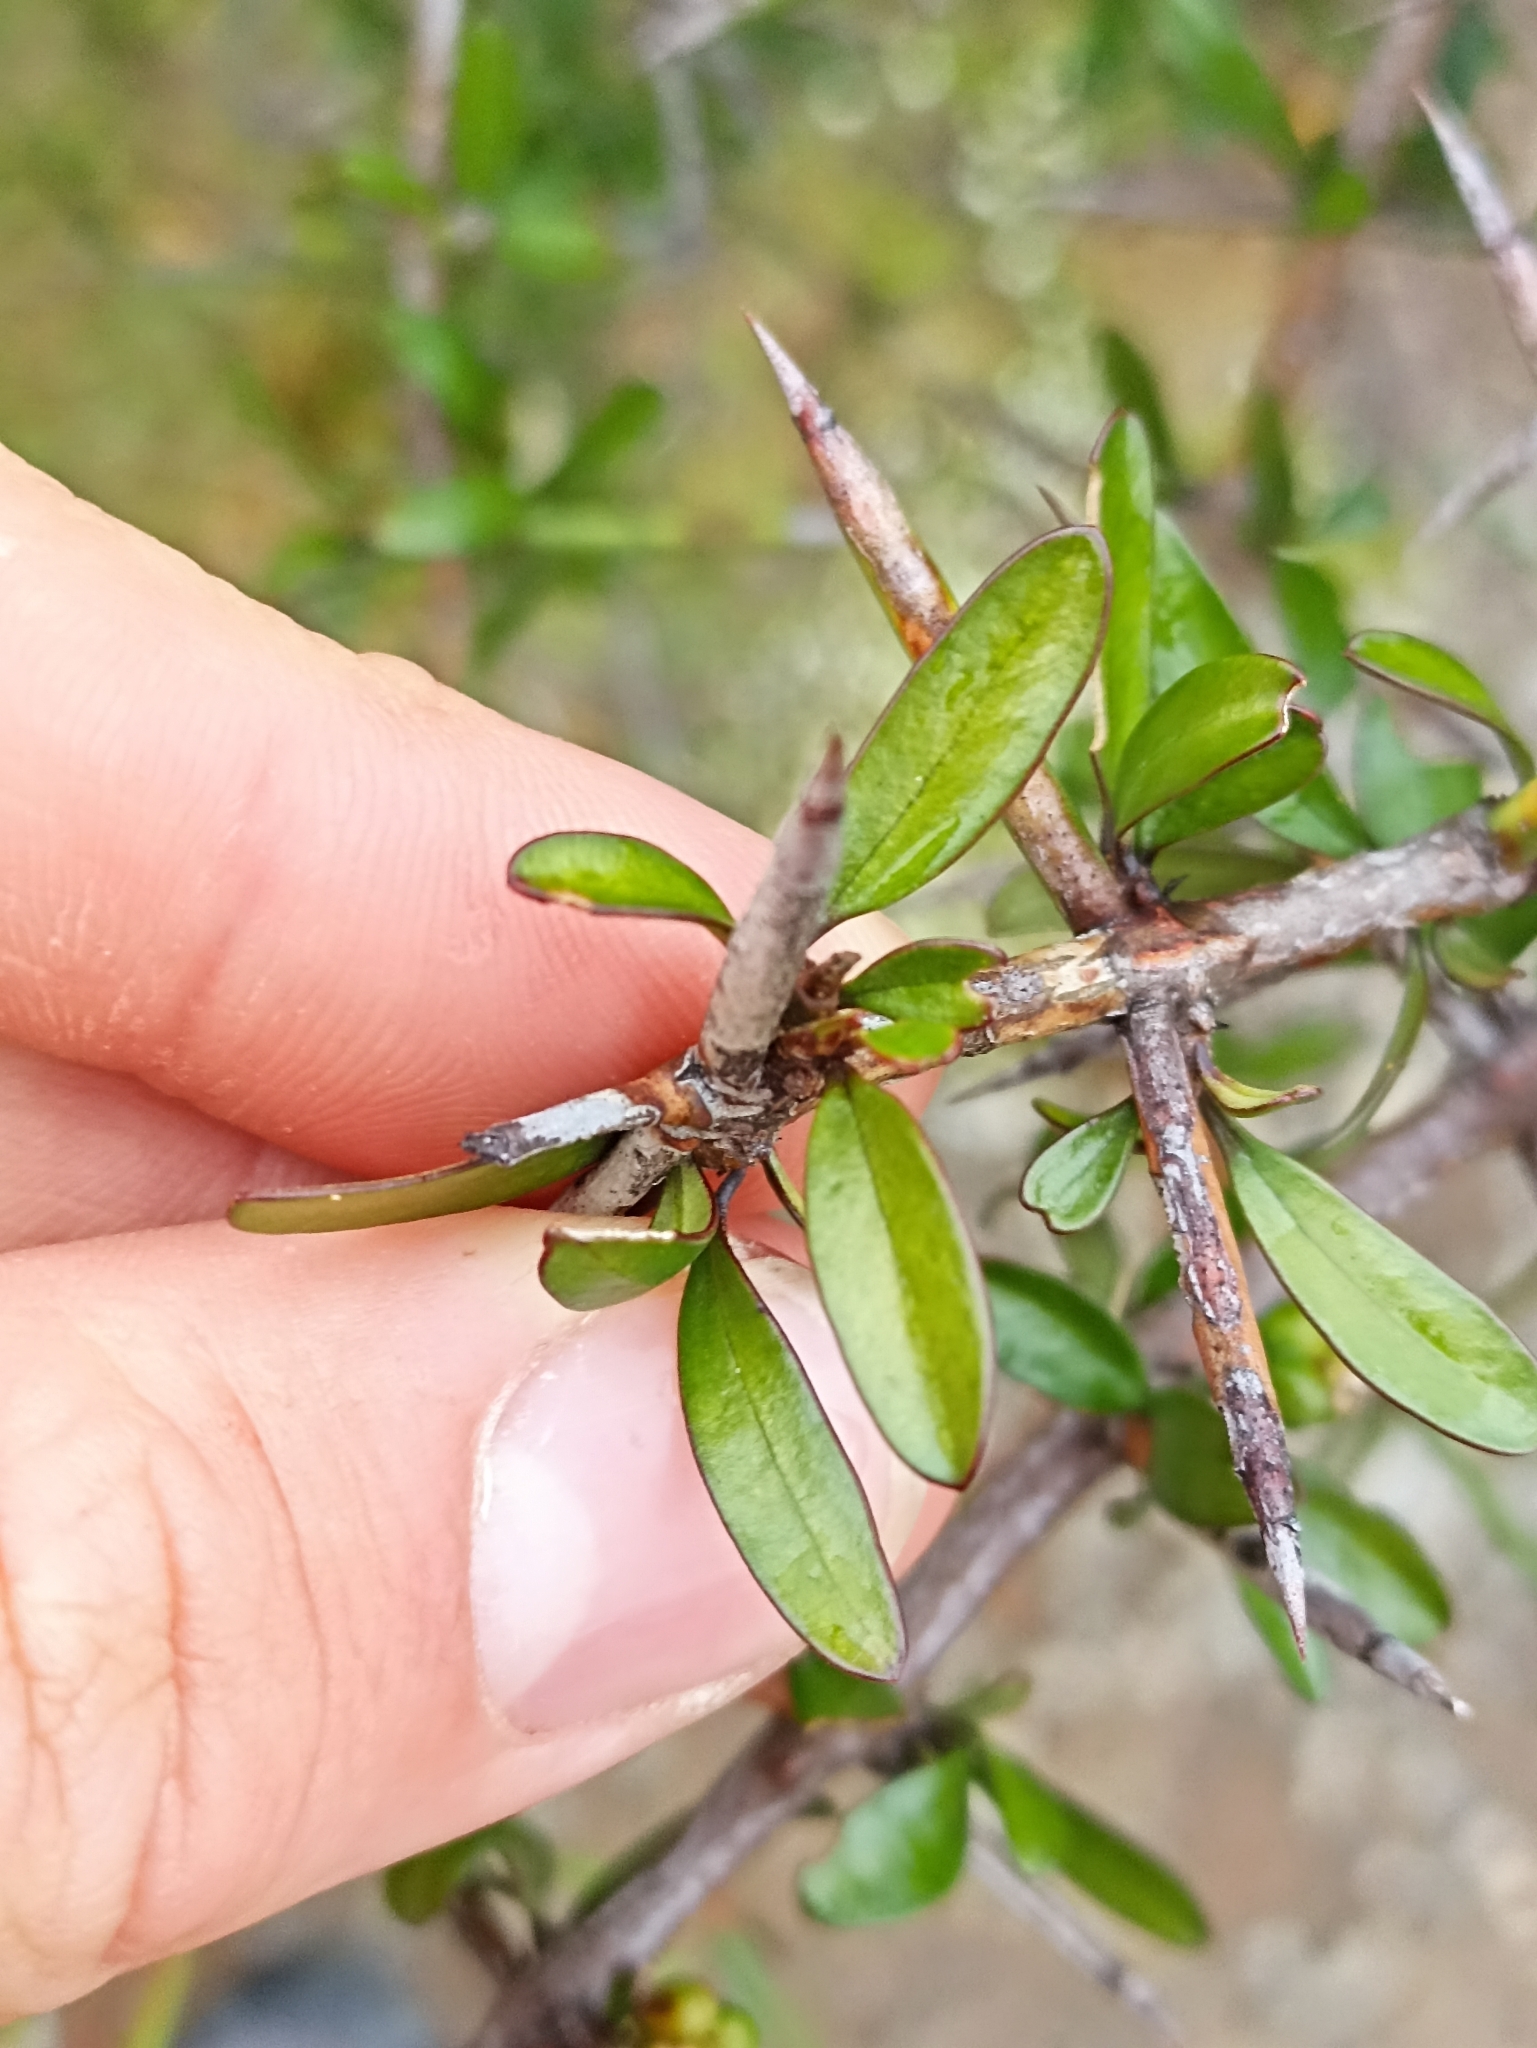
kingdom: Plantae
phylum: Tracheophyta
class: Magnoliopsida
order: Rosales
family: Rhamnaceae
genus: Discaria
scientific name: Discaria toumatou
